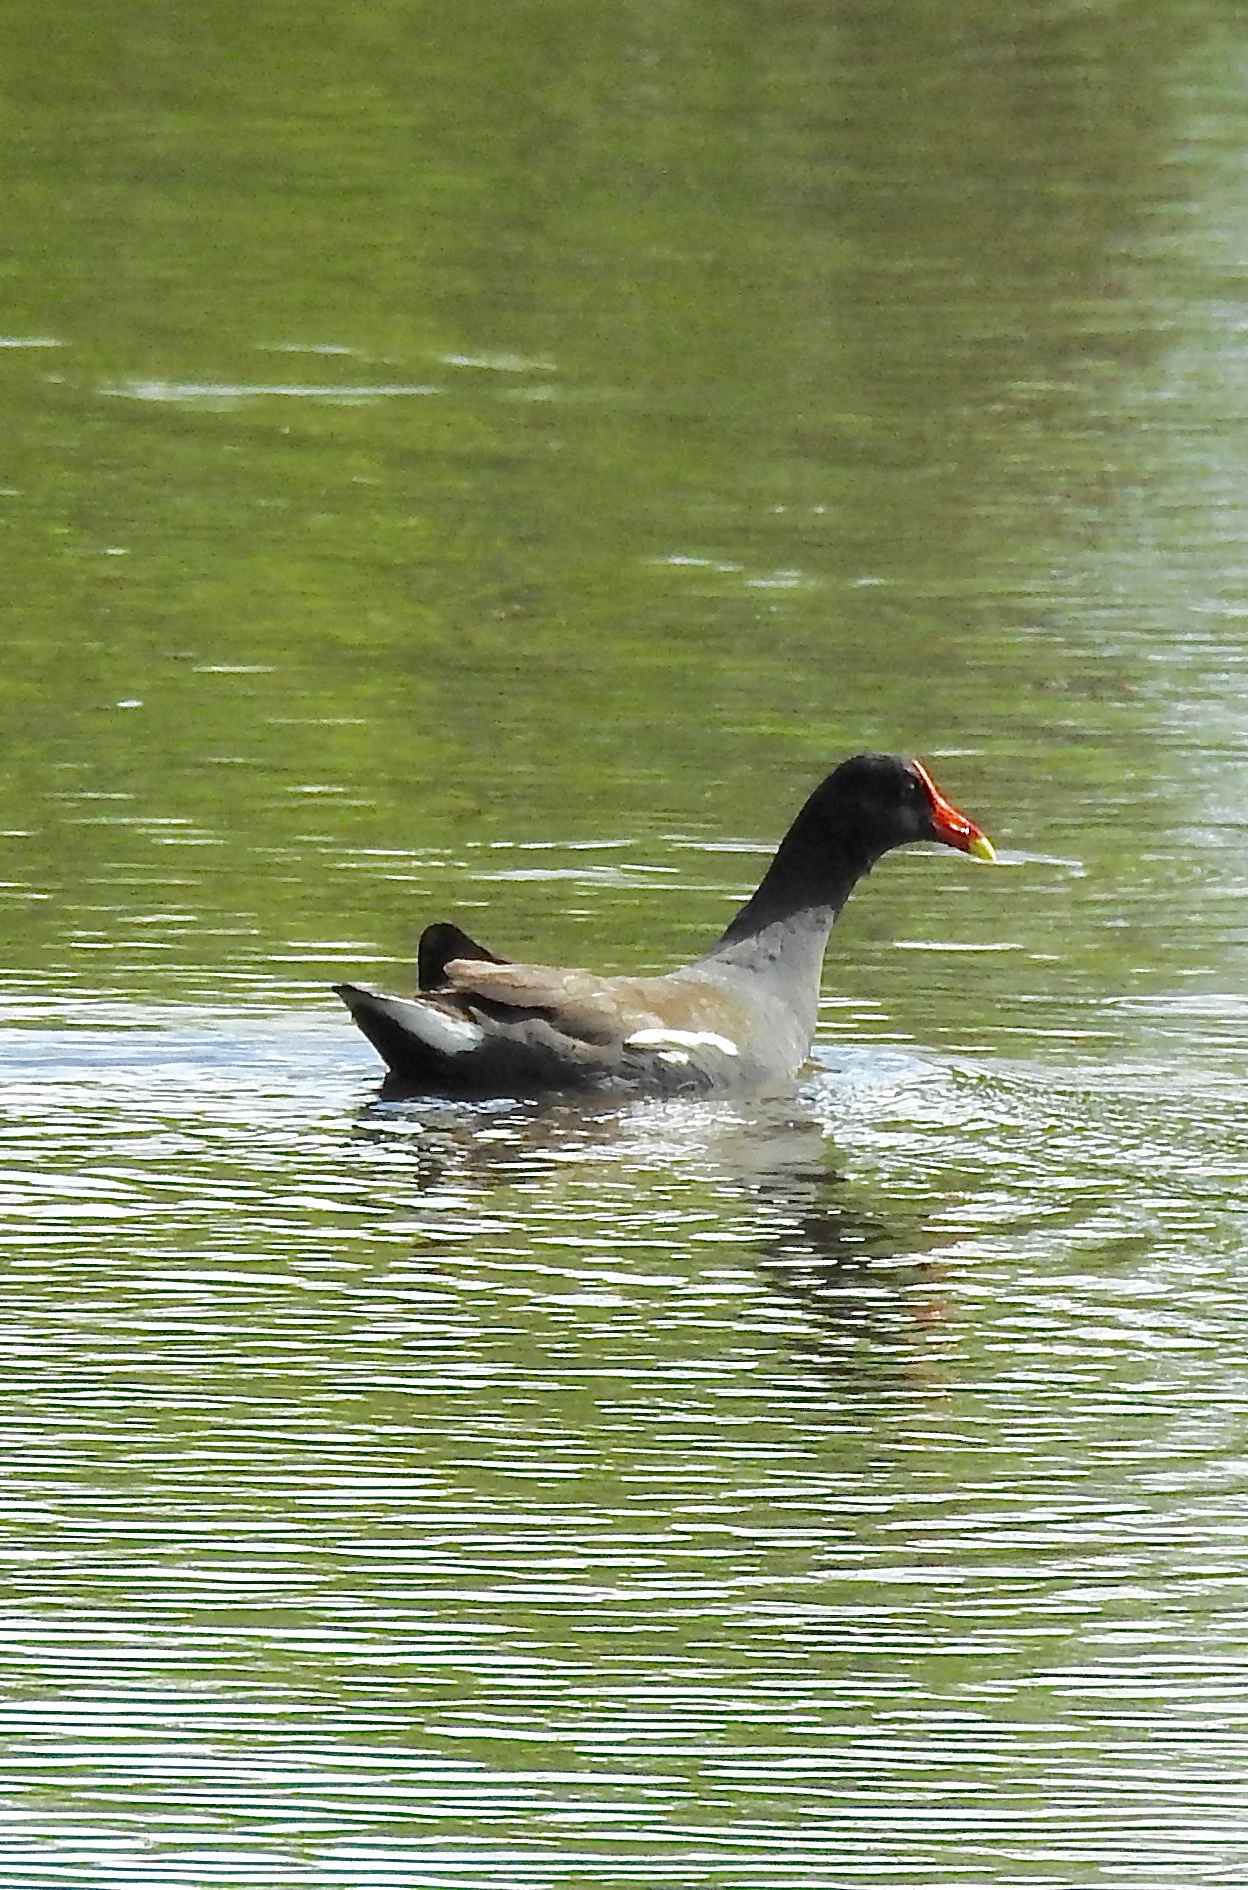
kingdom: Animalia
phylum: Chordata
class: Aves
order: Gruiformes
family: Rallidae
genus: Gallinula
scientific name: Gallinula chloropus
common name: Common moorhen
